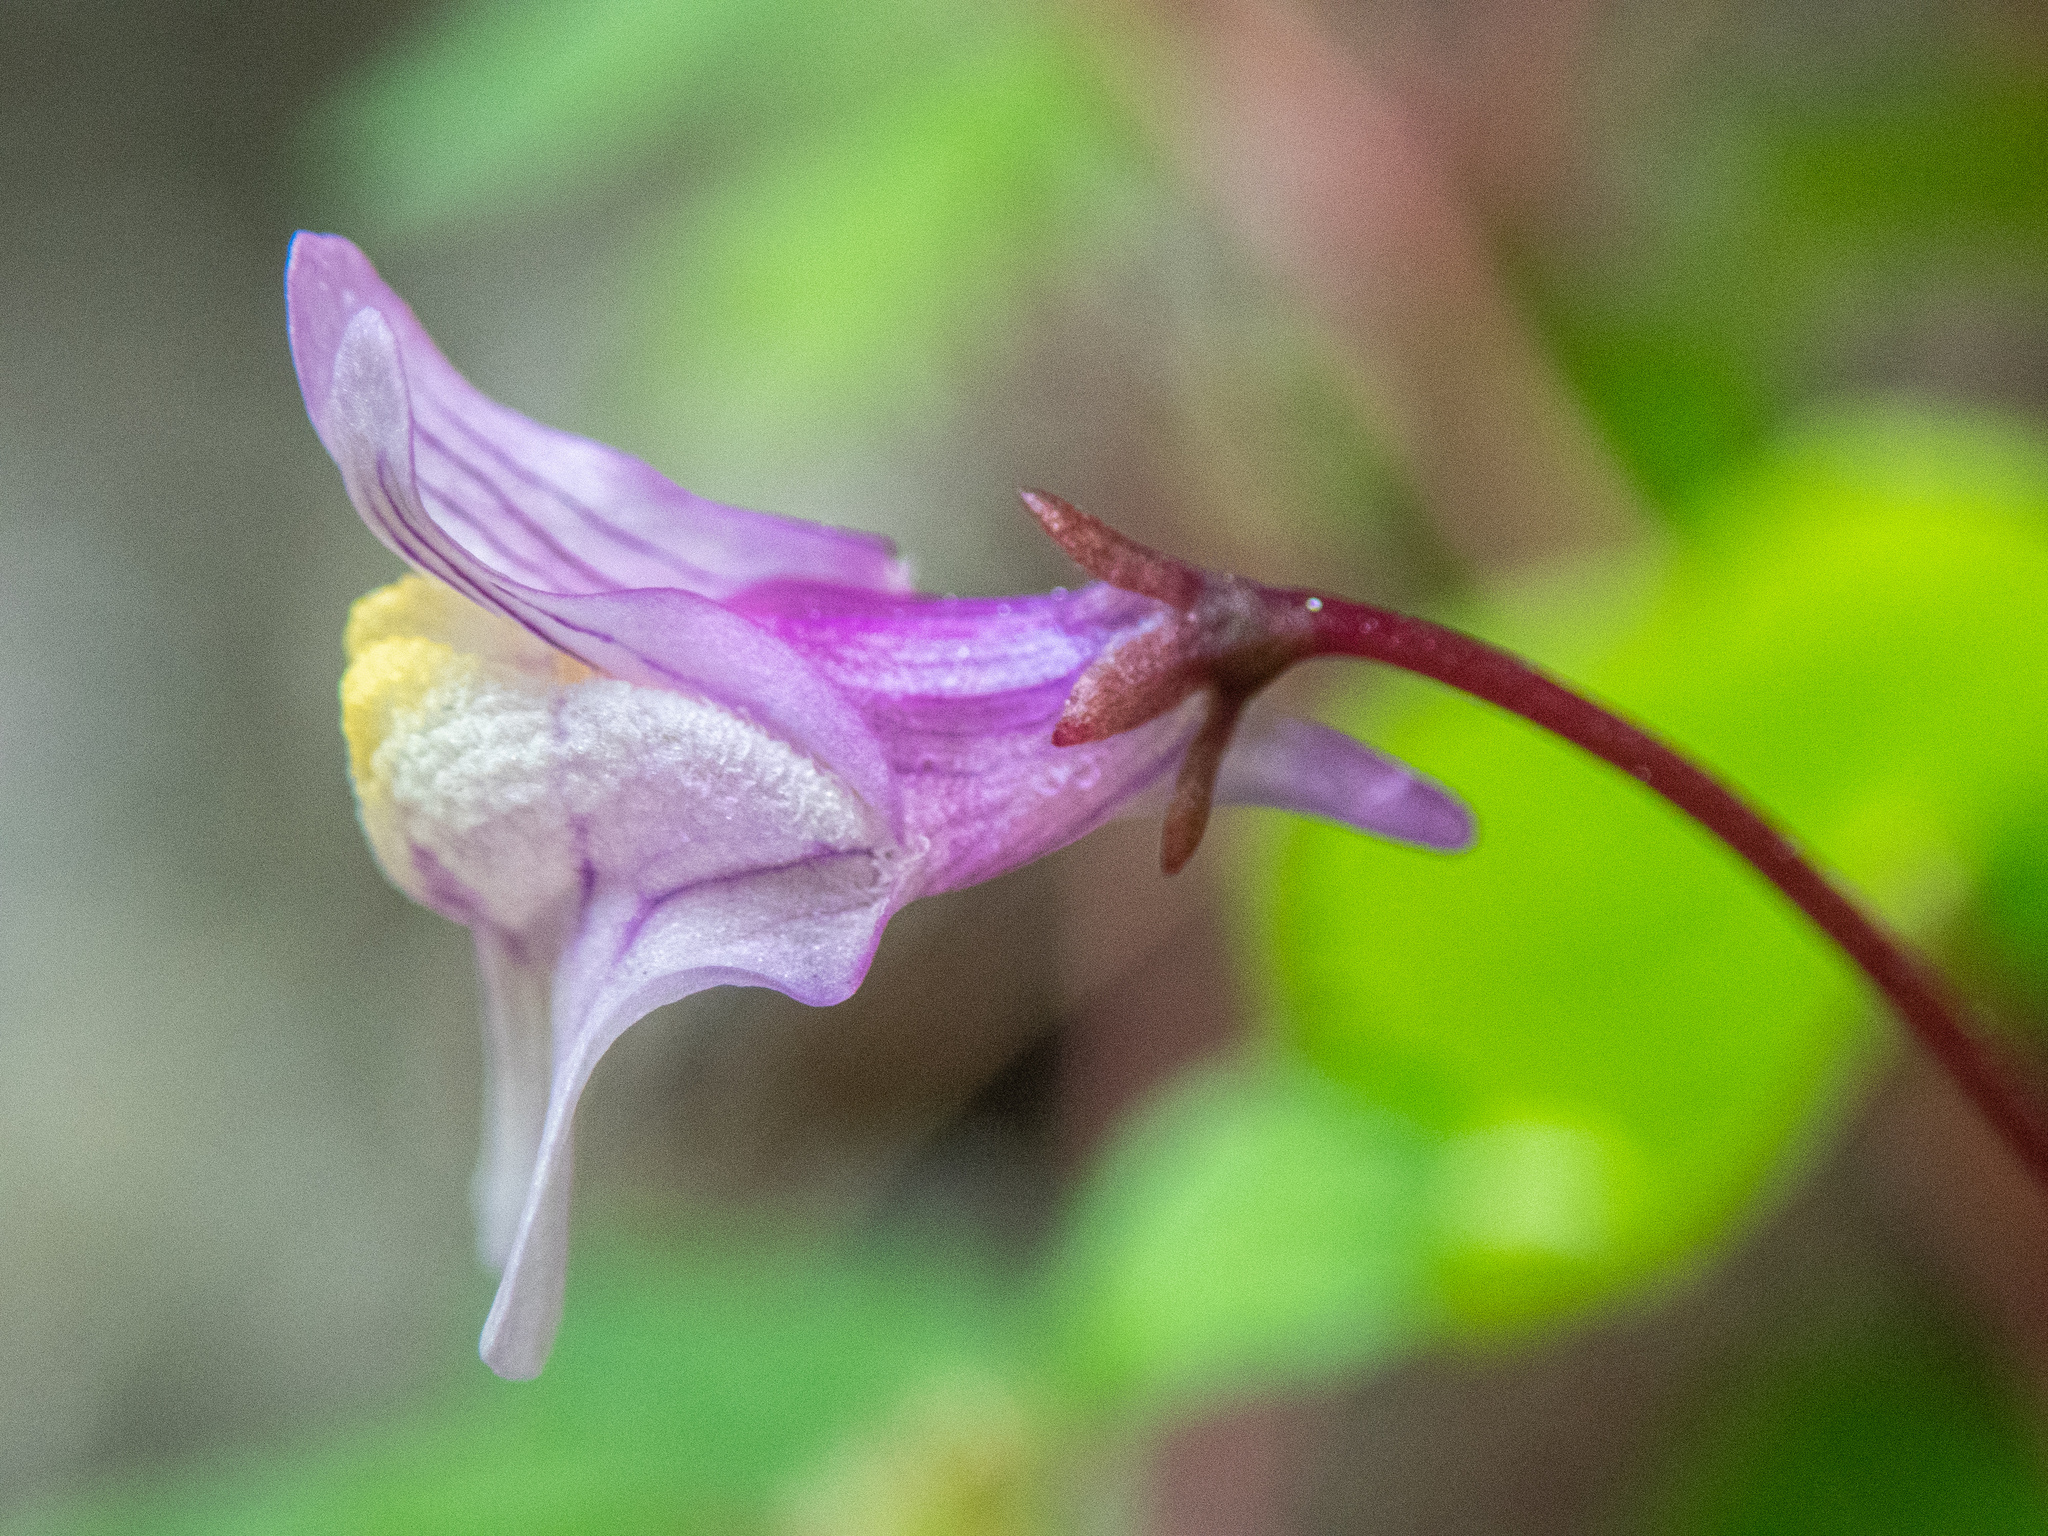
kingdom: Plantae
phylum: Tracheophyta
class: Magnoliopsida
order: Lamiales
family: Plantaginaceae
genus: Cymbalaria
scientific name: Cymbalaria muralis
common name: Ivy-leaved toadflax
